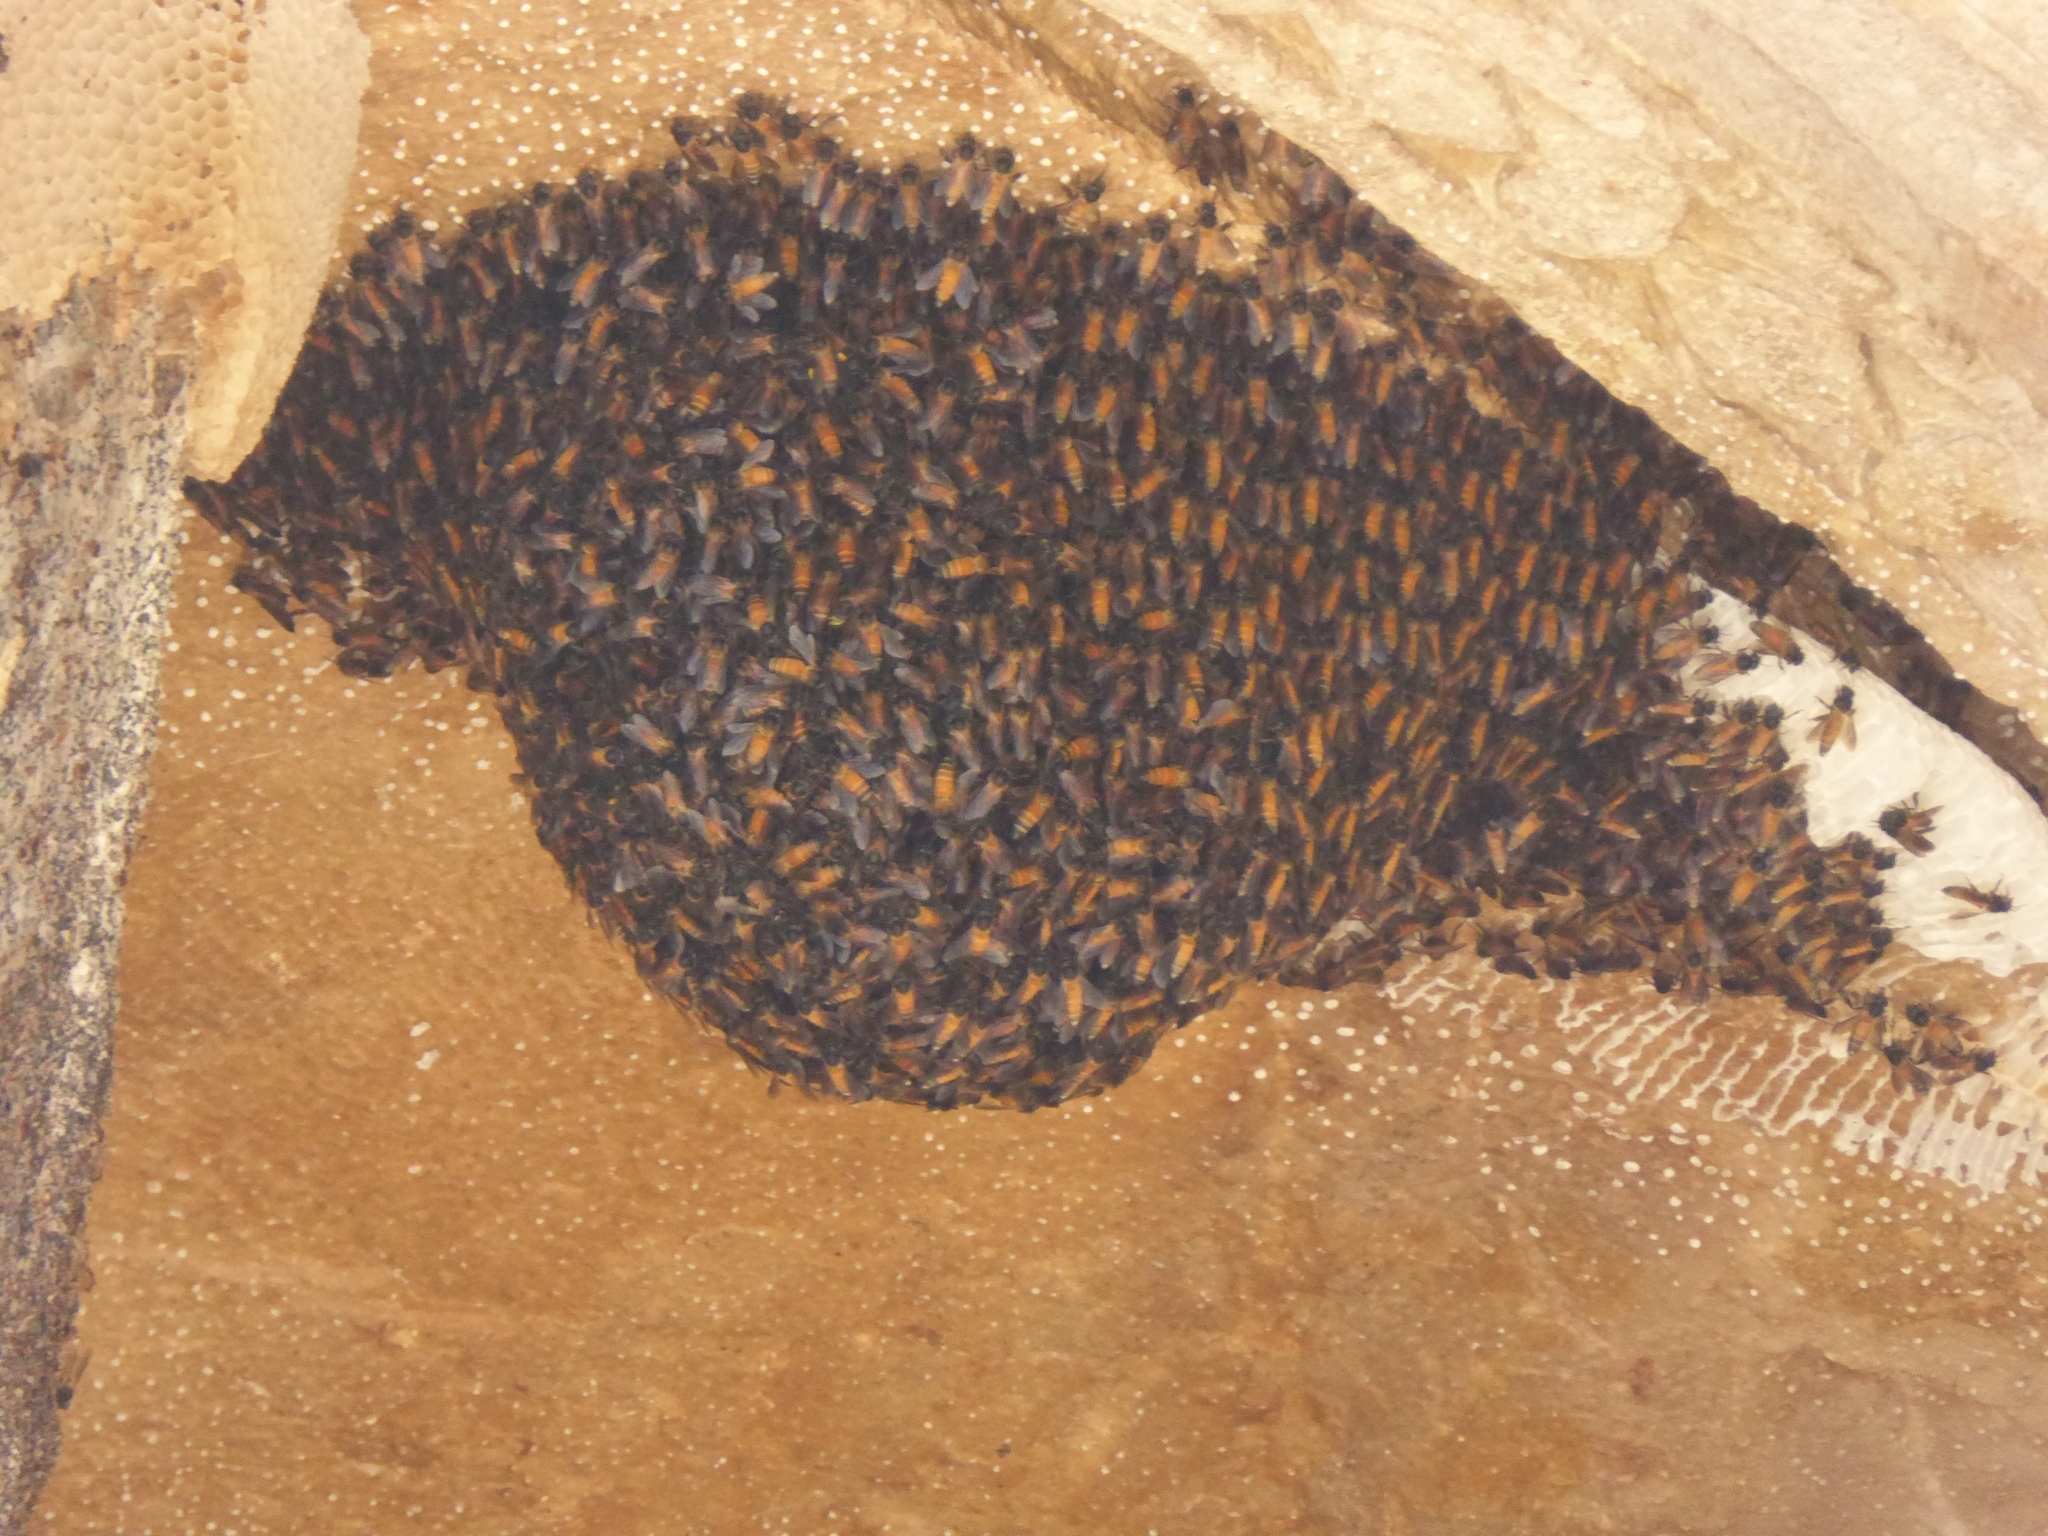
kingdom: Animalia
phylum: Arthropoda
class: Insecta
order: Hymenoptera
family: Apidae
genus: Apis
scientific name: Apis dorsata
